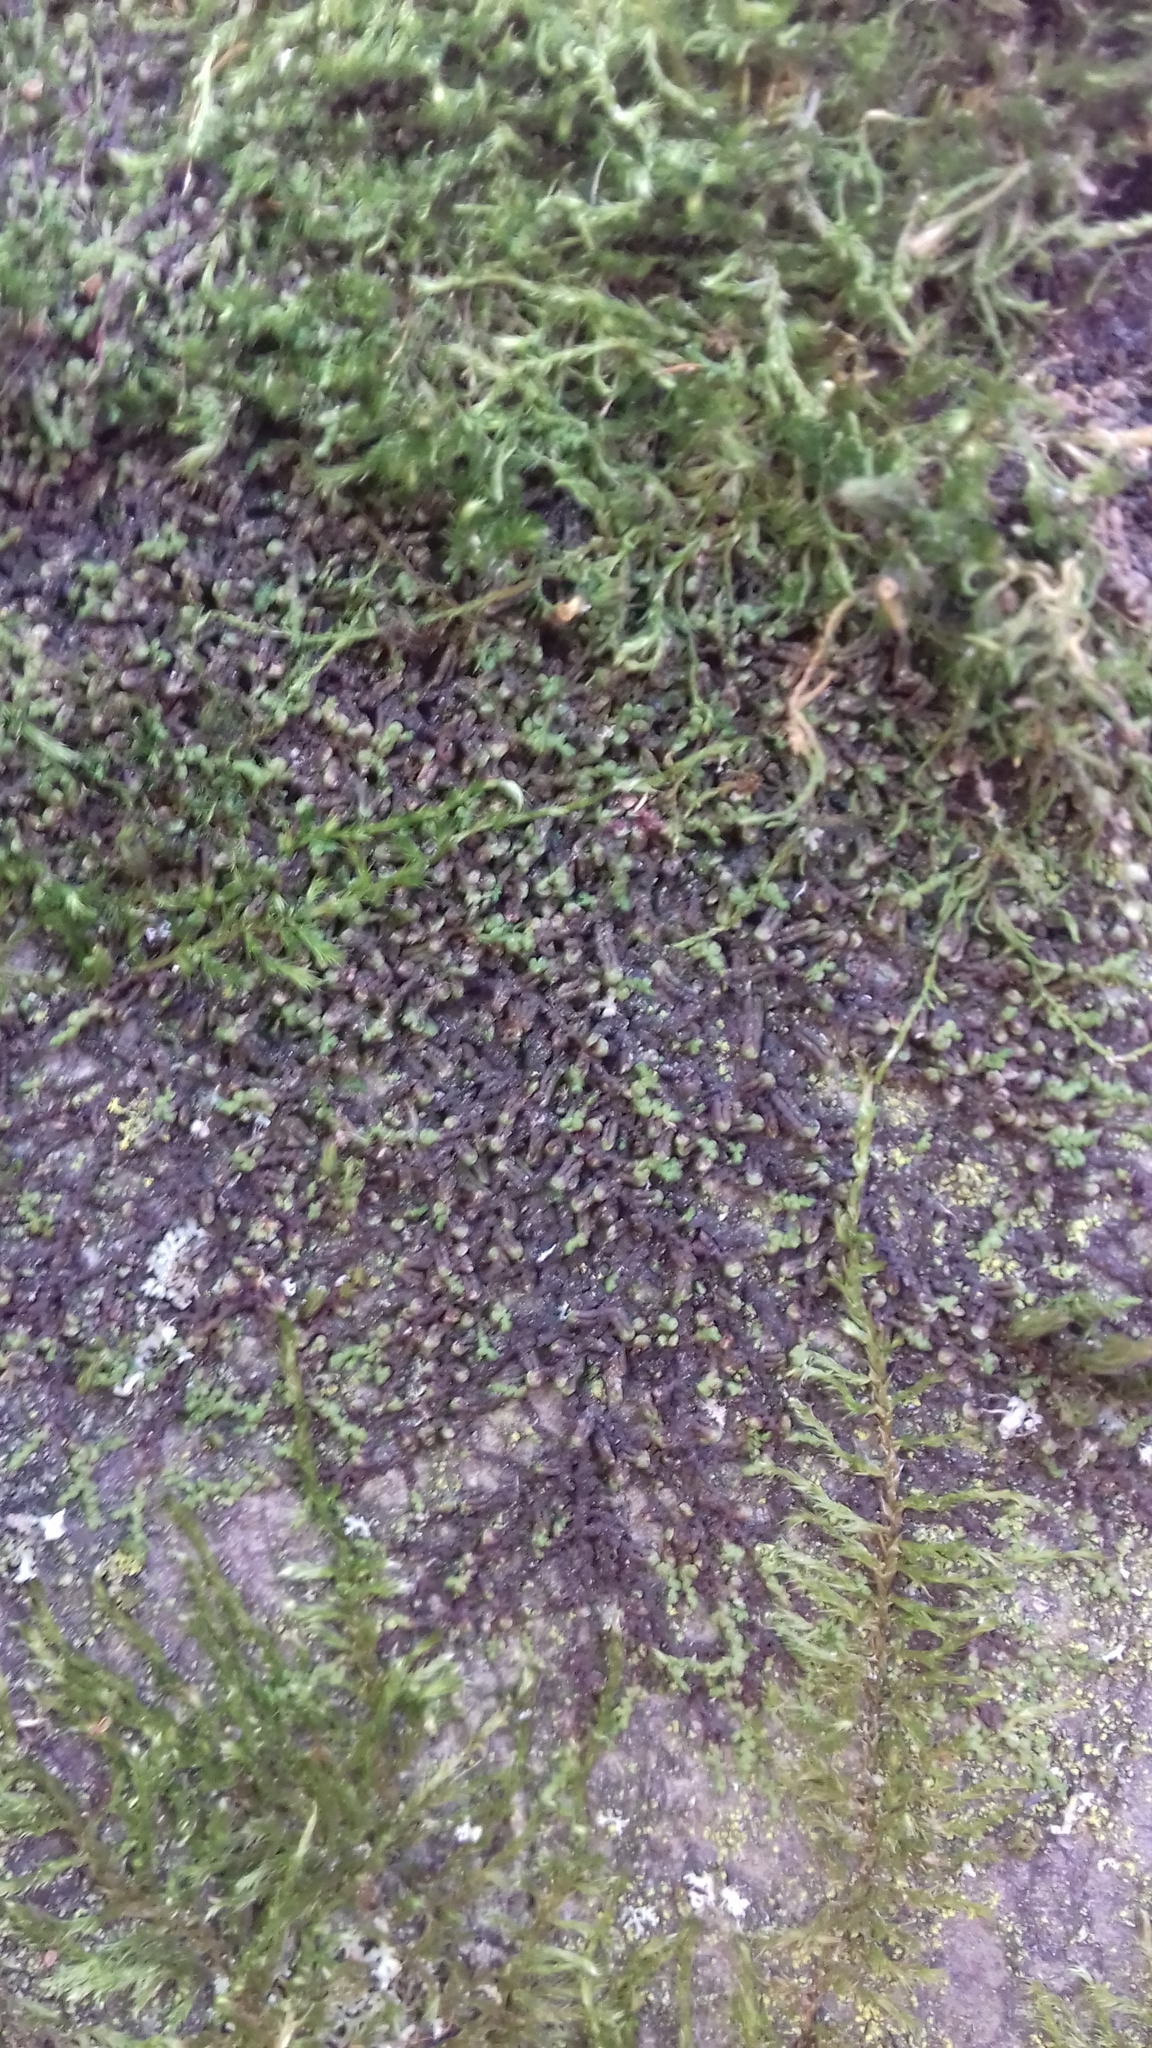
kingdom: Plantae
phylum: Marchantiophyta
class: Jungermanniopsida
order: Porellales
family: Frullaniaceae
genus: Frullania
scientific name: Frullania dilatata
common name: Dilated scalewort
